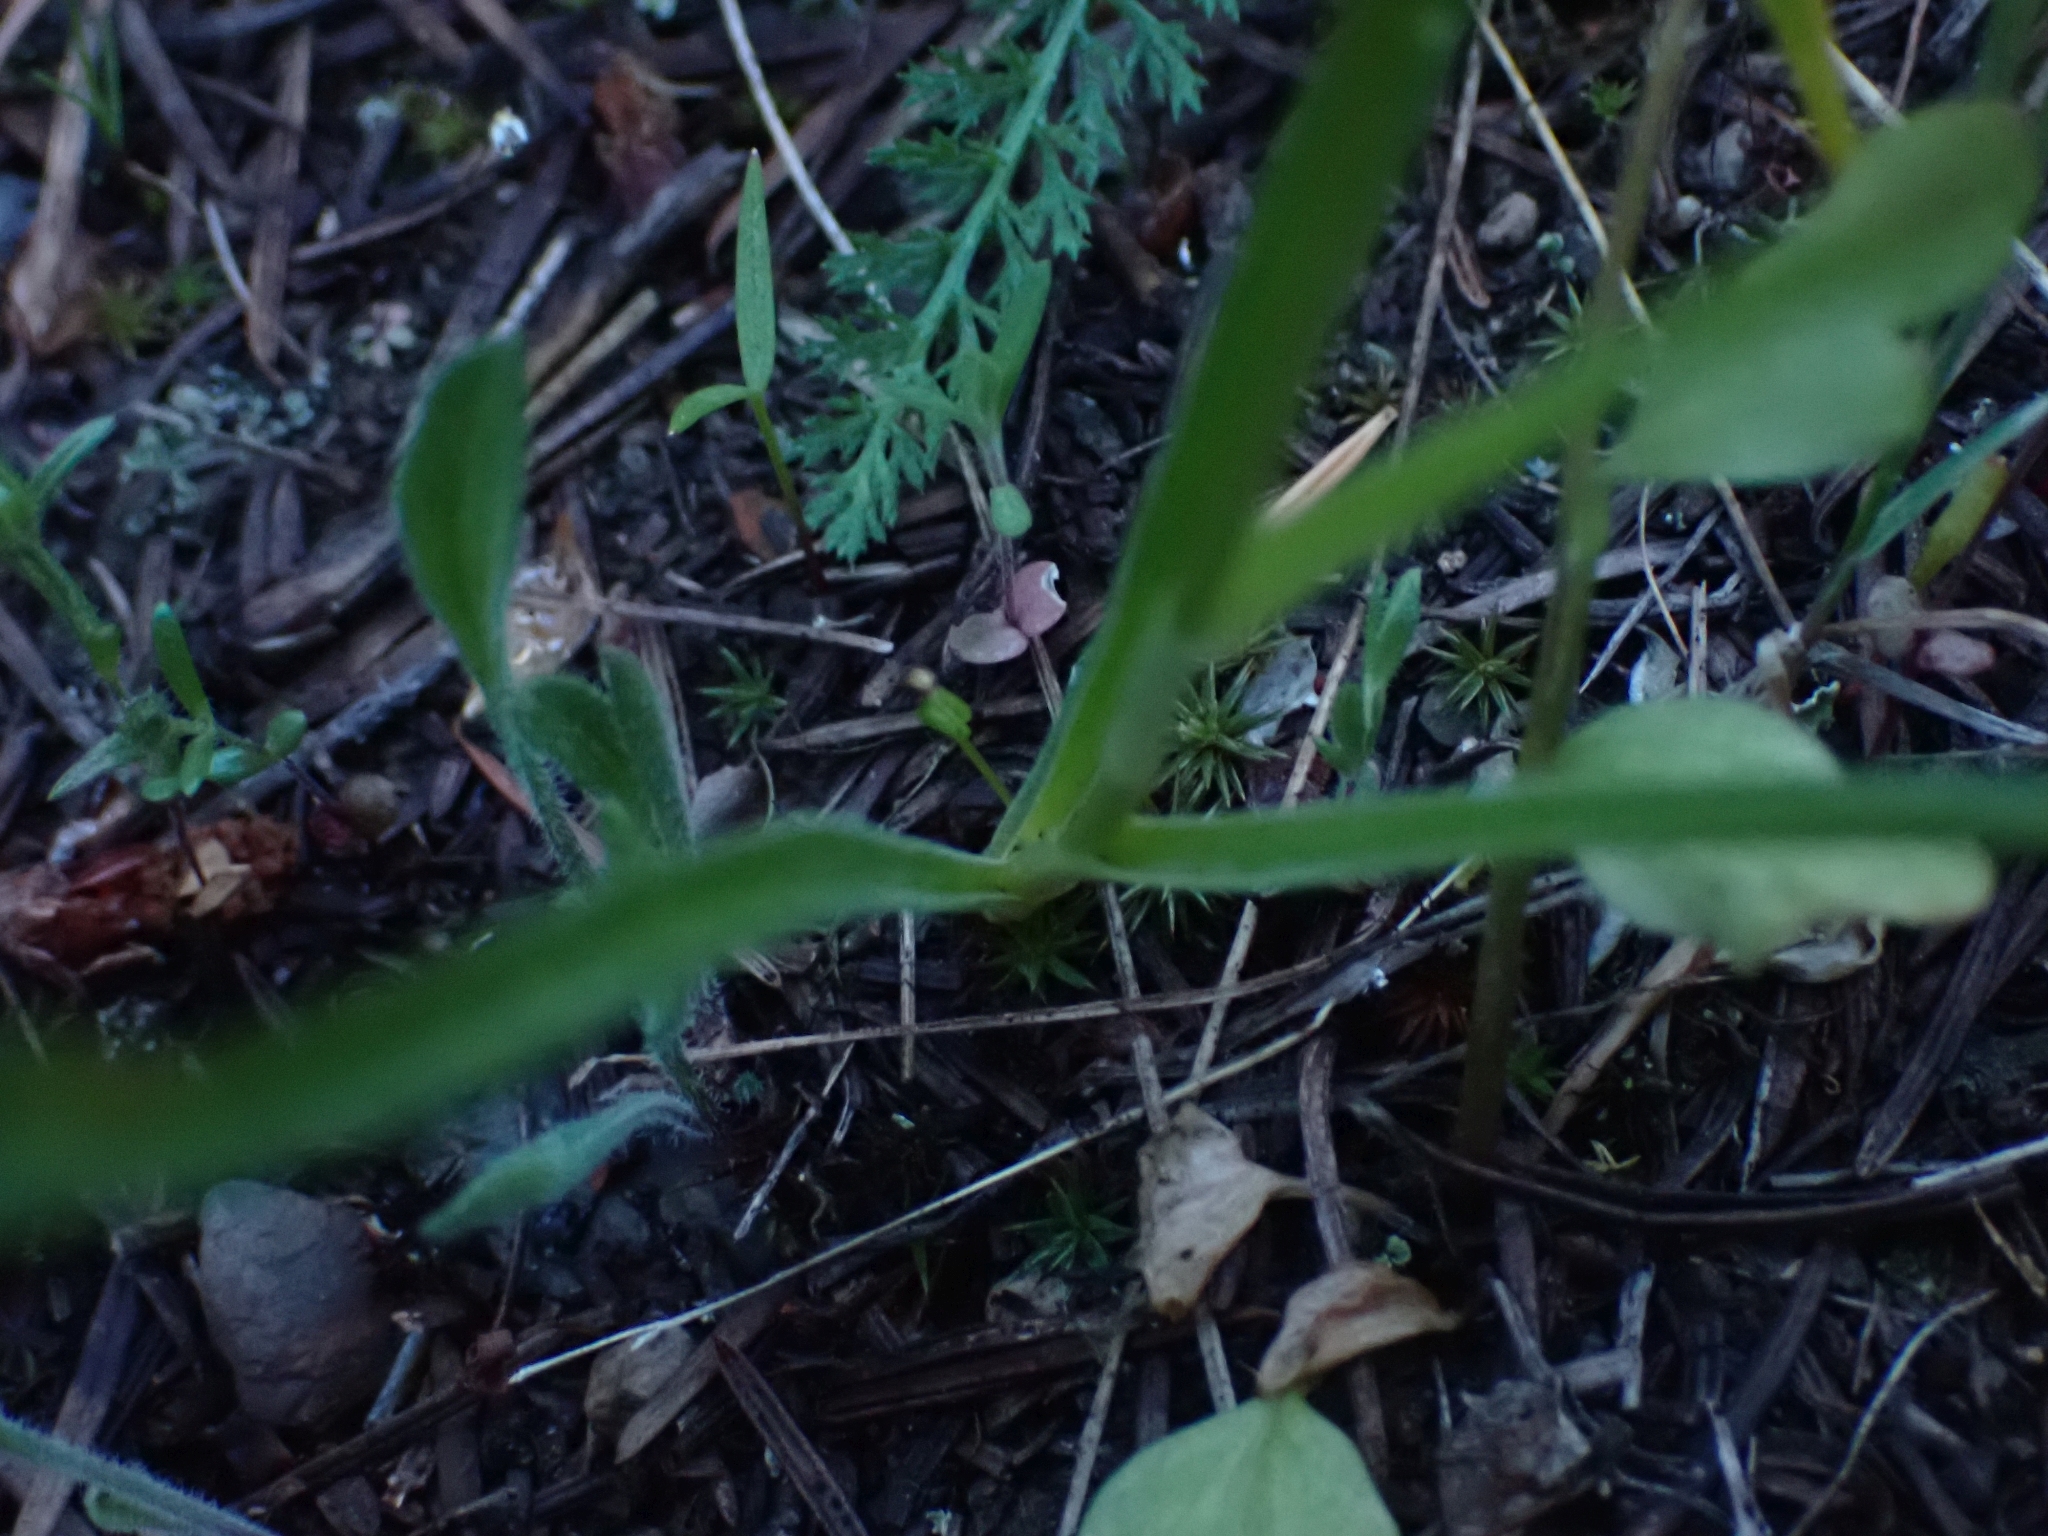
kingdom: Plantae
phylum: Tracheophyta
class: Liliopsida
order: Liliales
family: Melanthiaceae
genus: Toxicoscordion
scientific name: Toxicoscordion venenosum
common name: Meadow death camas
